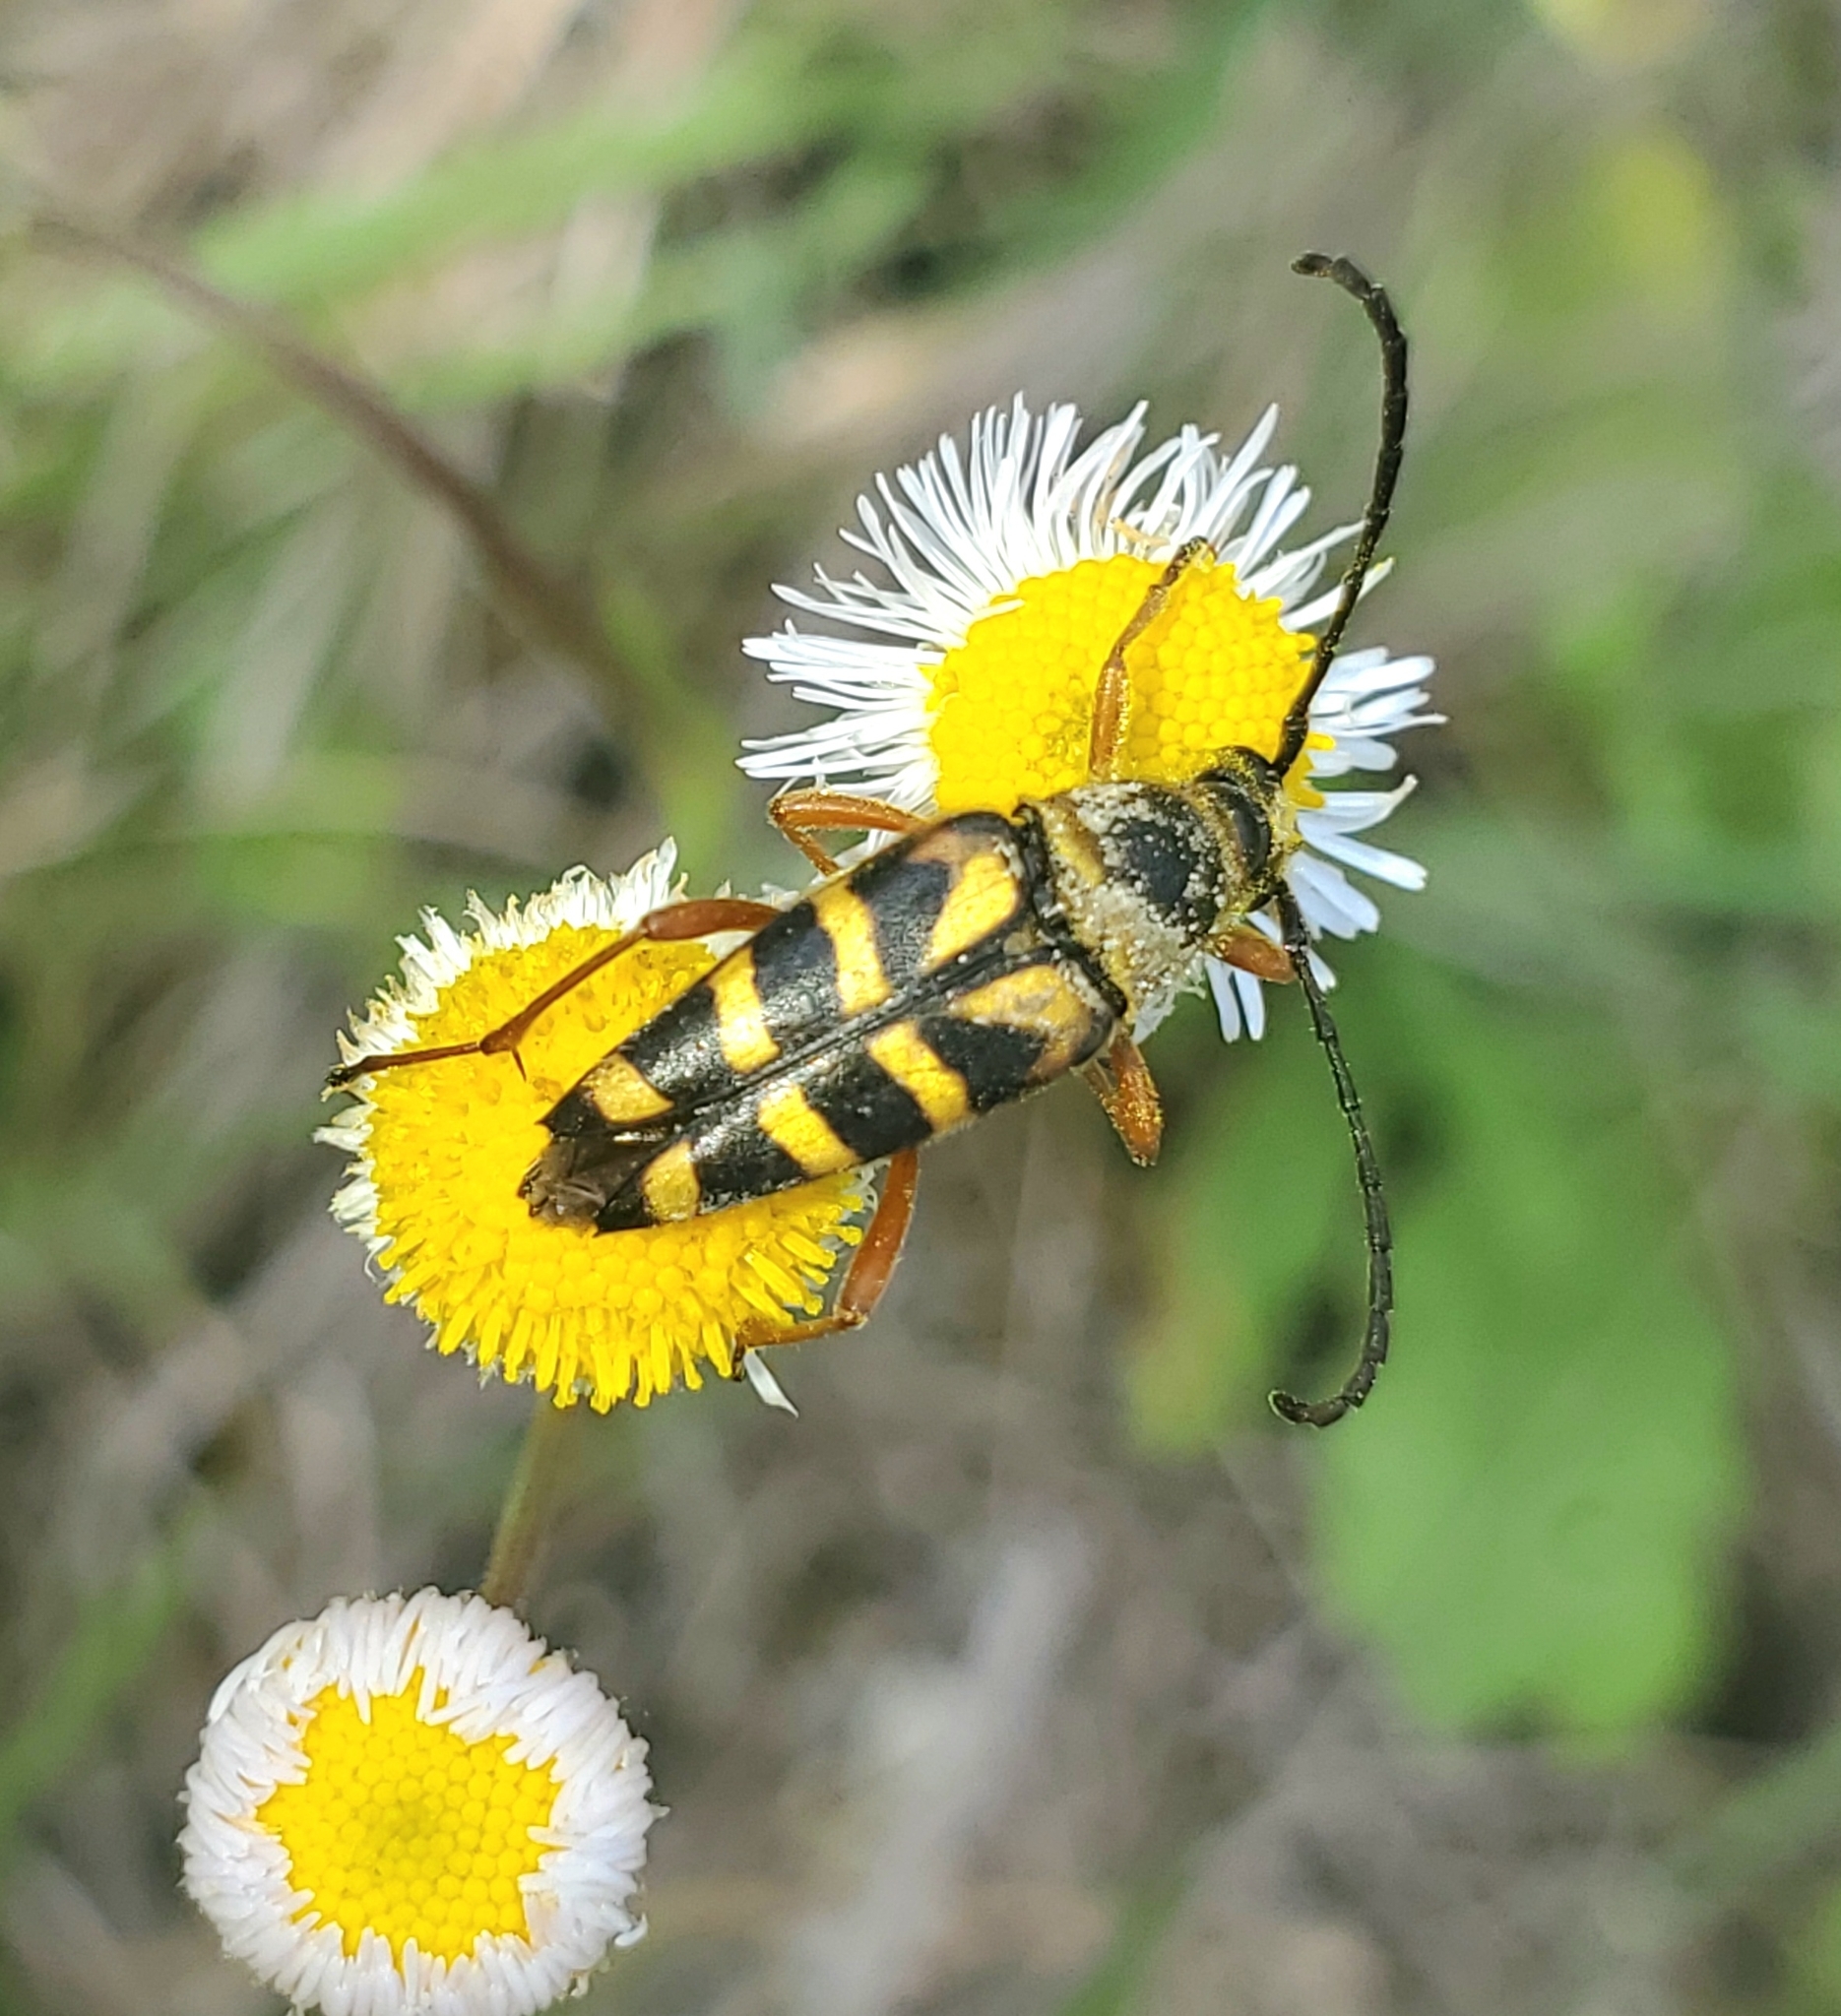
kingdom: Animalia
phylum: Arthropoda
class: Insecta
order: Coleoptera
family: Cerambycidae
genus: Typocerus
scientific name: Typocerus zebra
